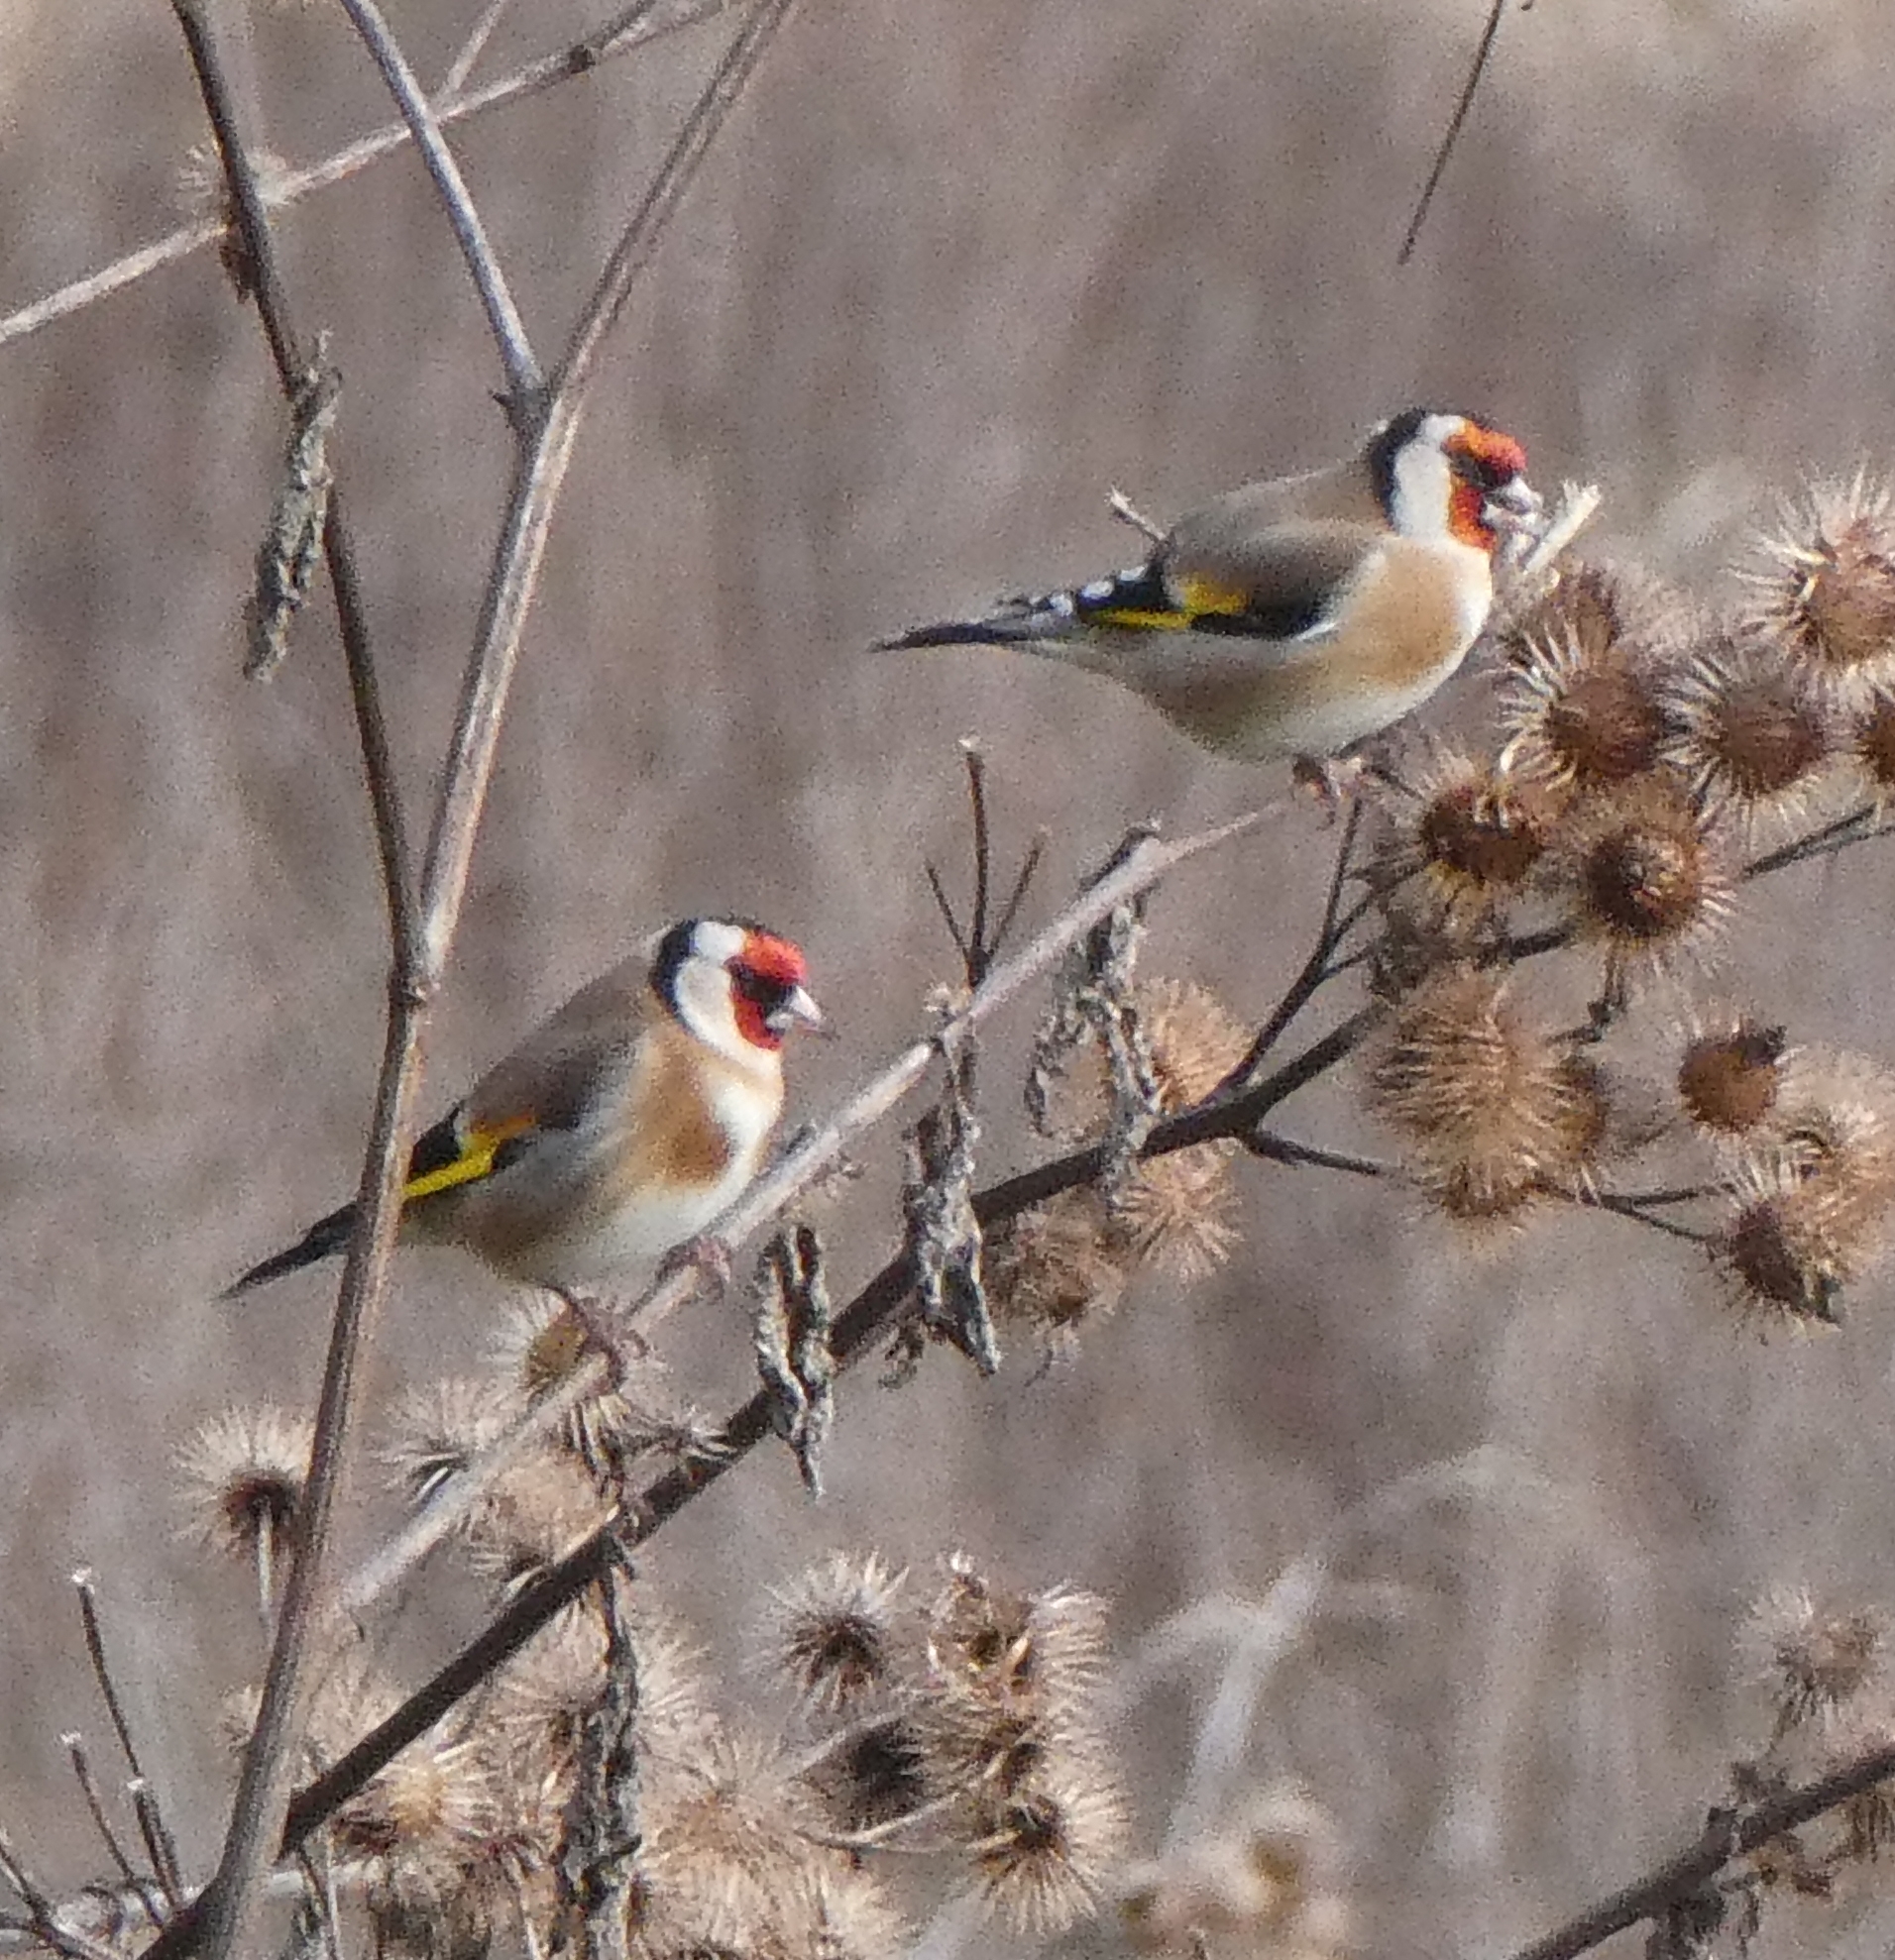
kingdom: Animalia
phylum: Chordata
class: Aves
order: Passeriformes
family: Fringillidae
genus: Carduelis
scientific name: Carduelis carduelis
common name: European goldfinch
